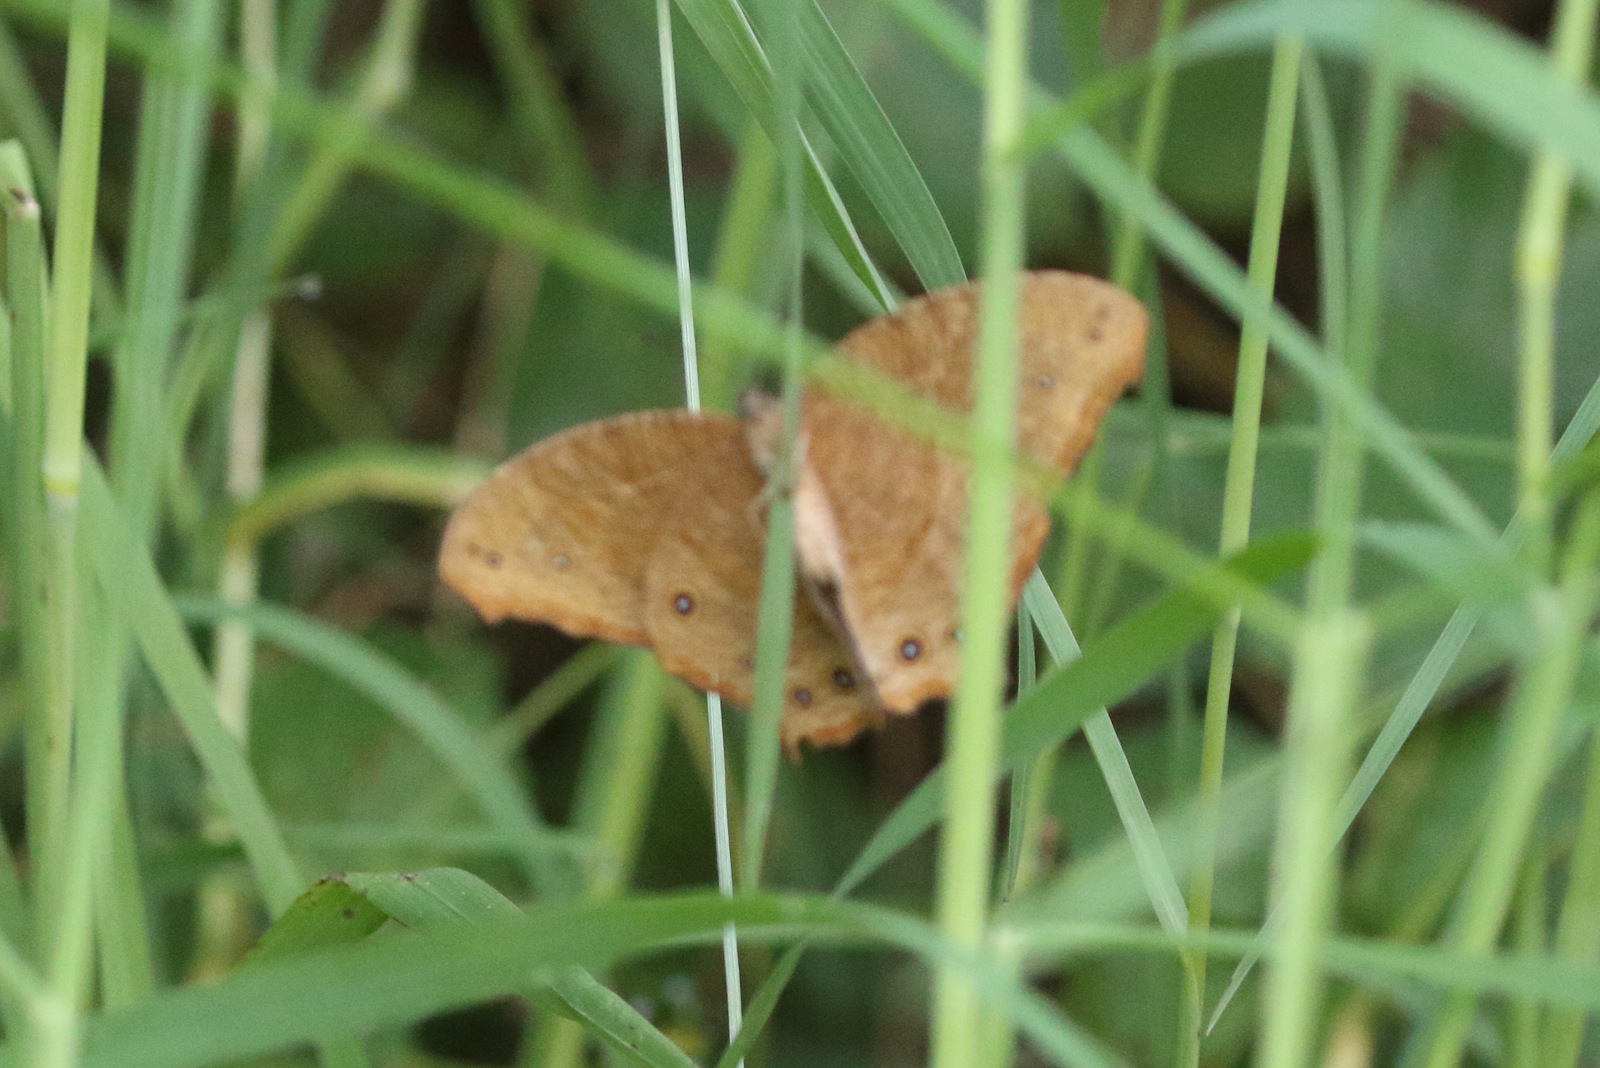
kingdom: Animalia
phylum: Arthropoda
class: Insecta
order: Lepidoptera
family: Nymphalidae
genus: Melanitis
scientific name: Melanitis leda
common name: Twilight brown
